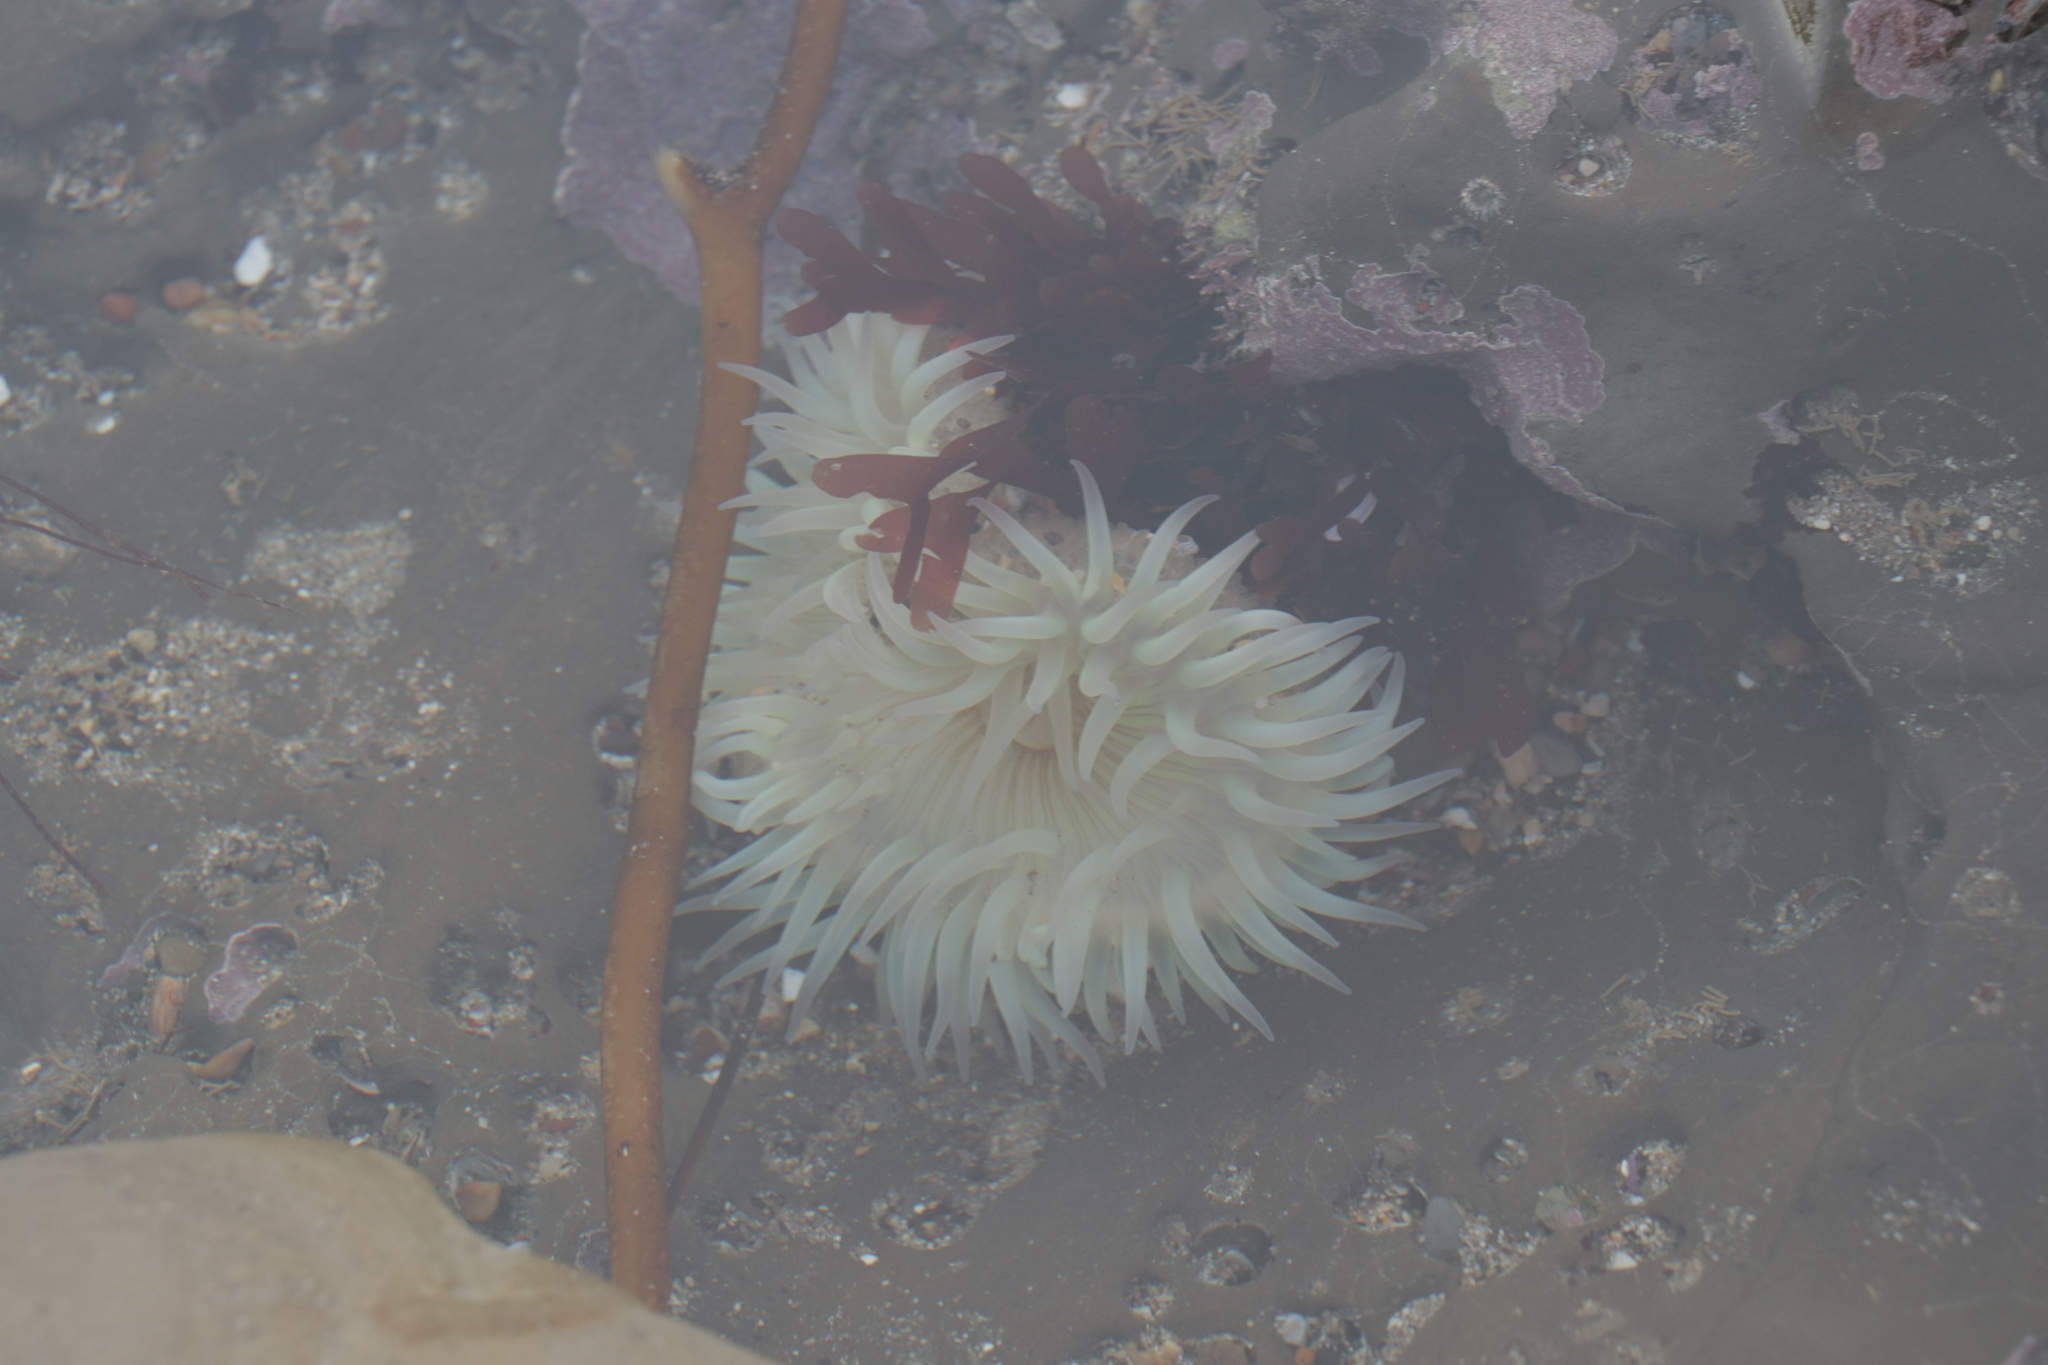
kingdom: Animalia
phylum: Cnidaria
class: Anthozoa
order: Actiniaria
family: Actiniidae
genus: Anthopleura
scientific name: Anthopleura sola
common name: Sun anemone
